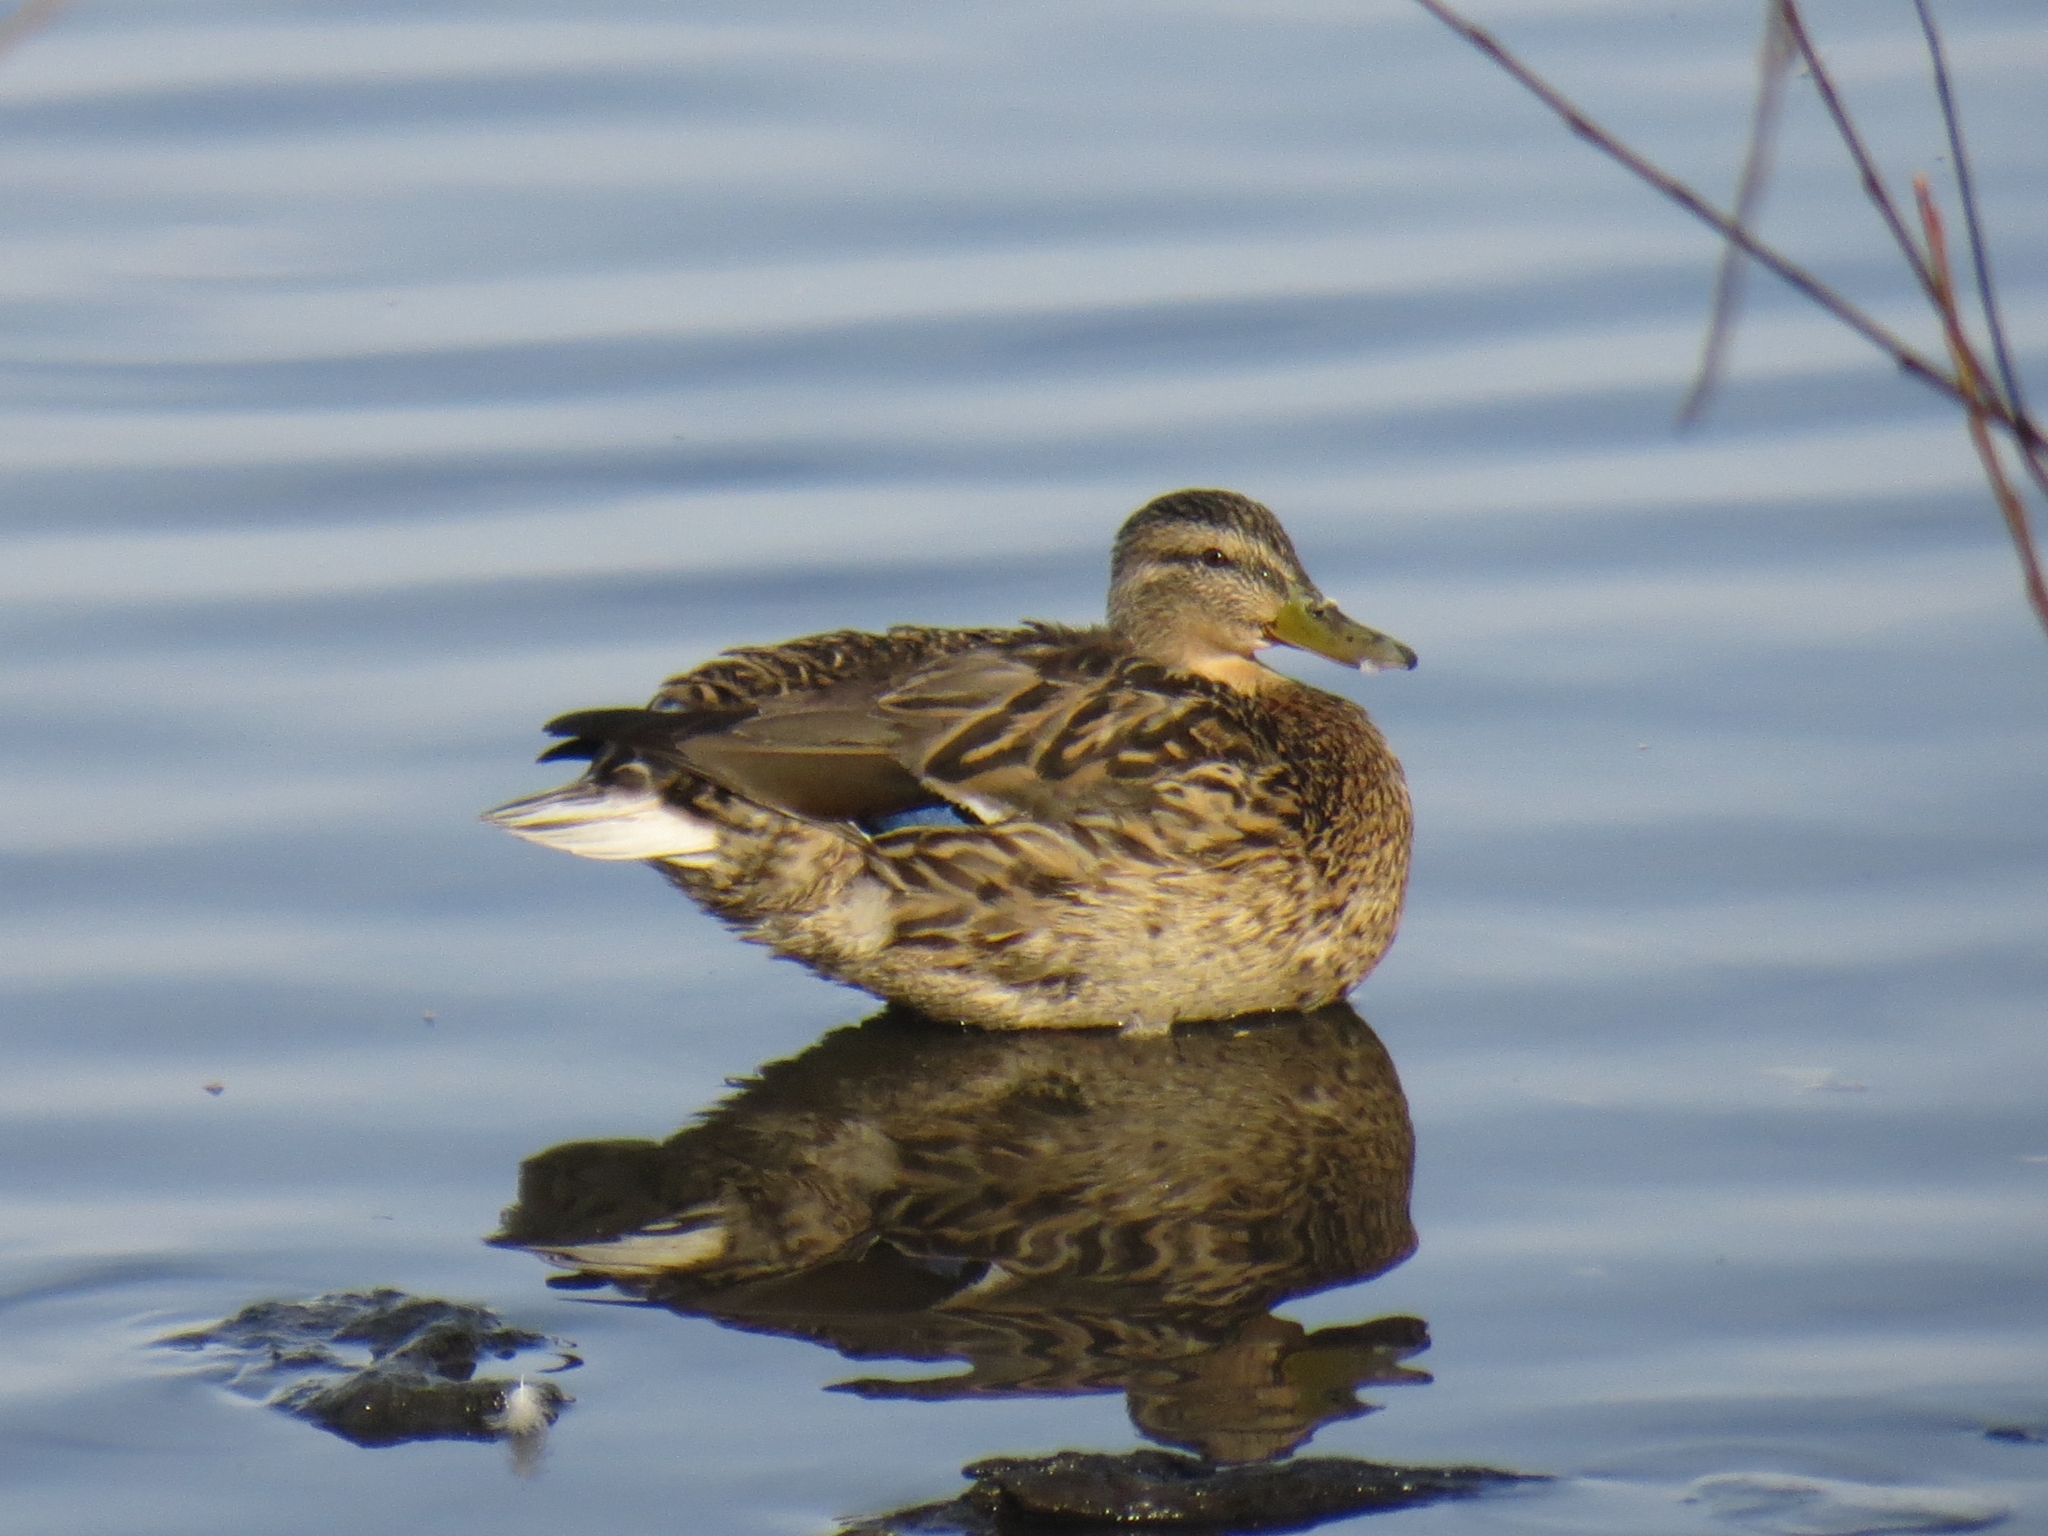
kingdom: Animalia
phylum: Chordata
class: Aves
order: Anseriformes
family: Anatidae
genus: Anas
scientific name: Anas platyrhynchos
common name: Mallard
